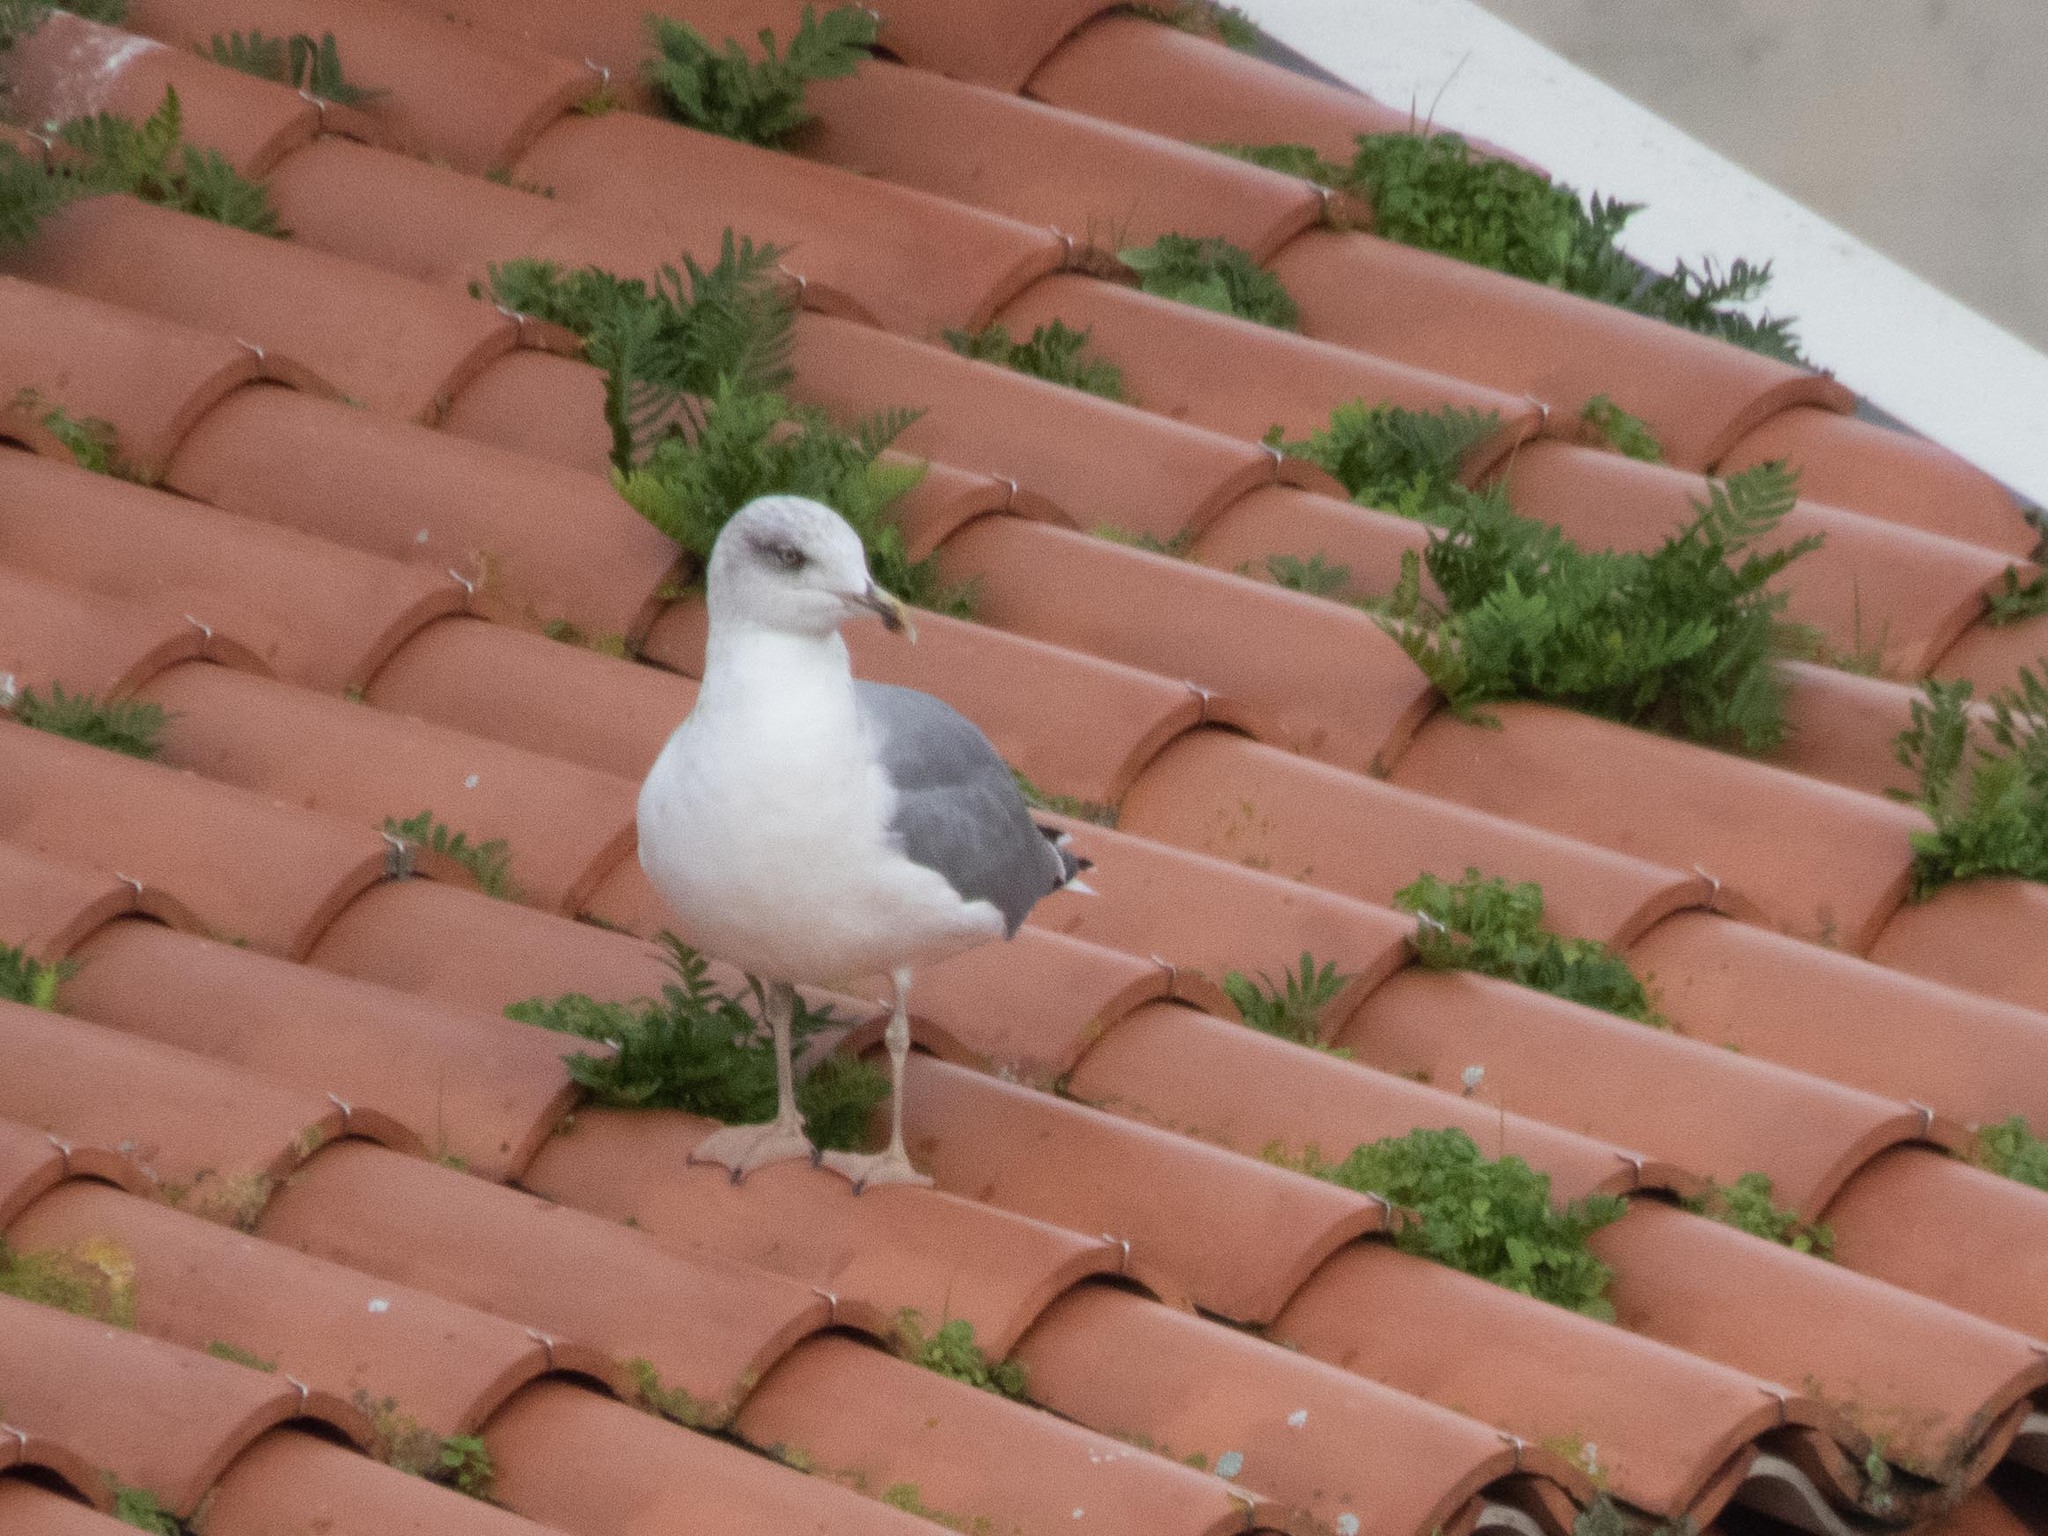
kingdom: Animalia
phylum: Chordata
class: Aves
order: Charadriiformes
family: Laridae
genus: Larus
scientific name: Larus michahellis
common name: Yellow-legged gull
